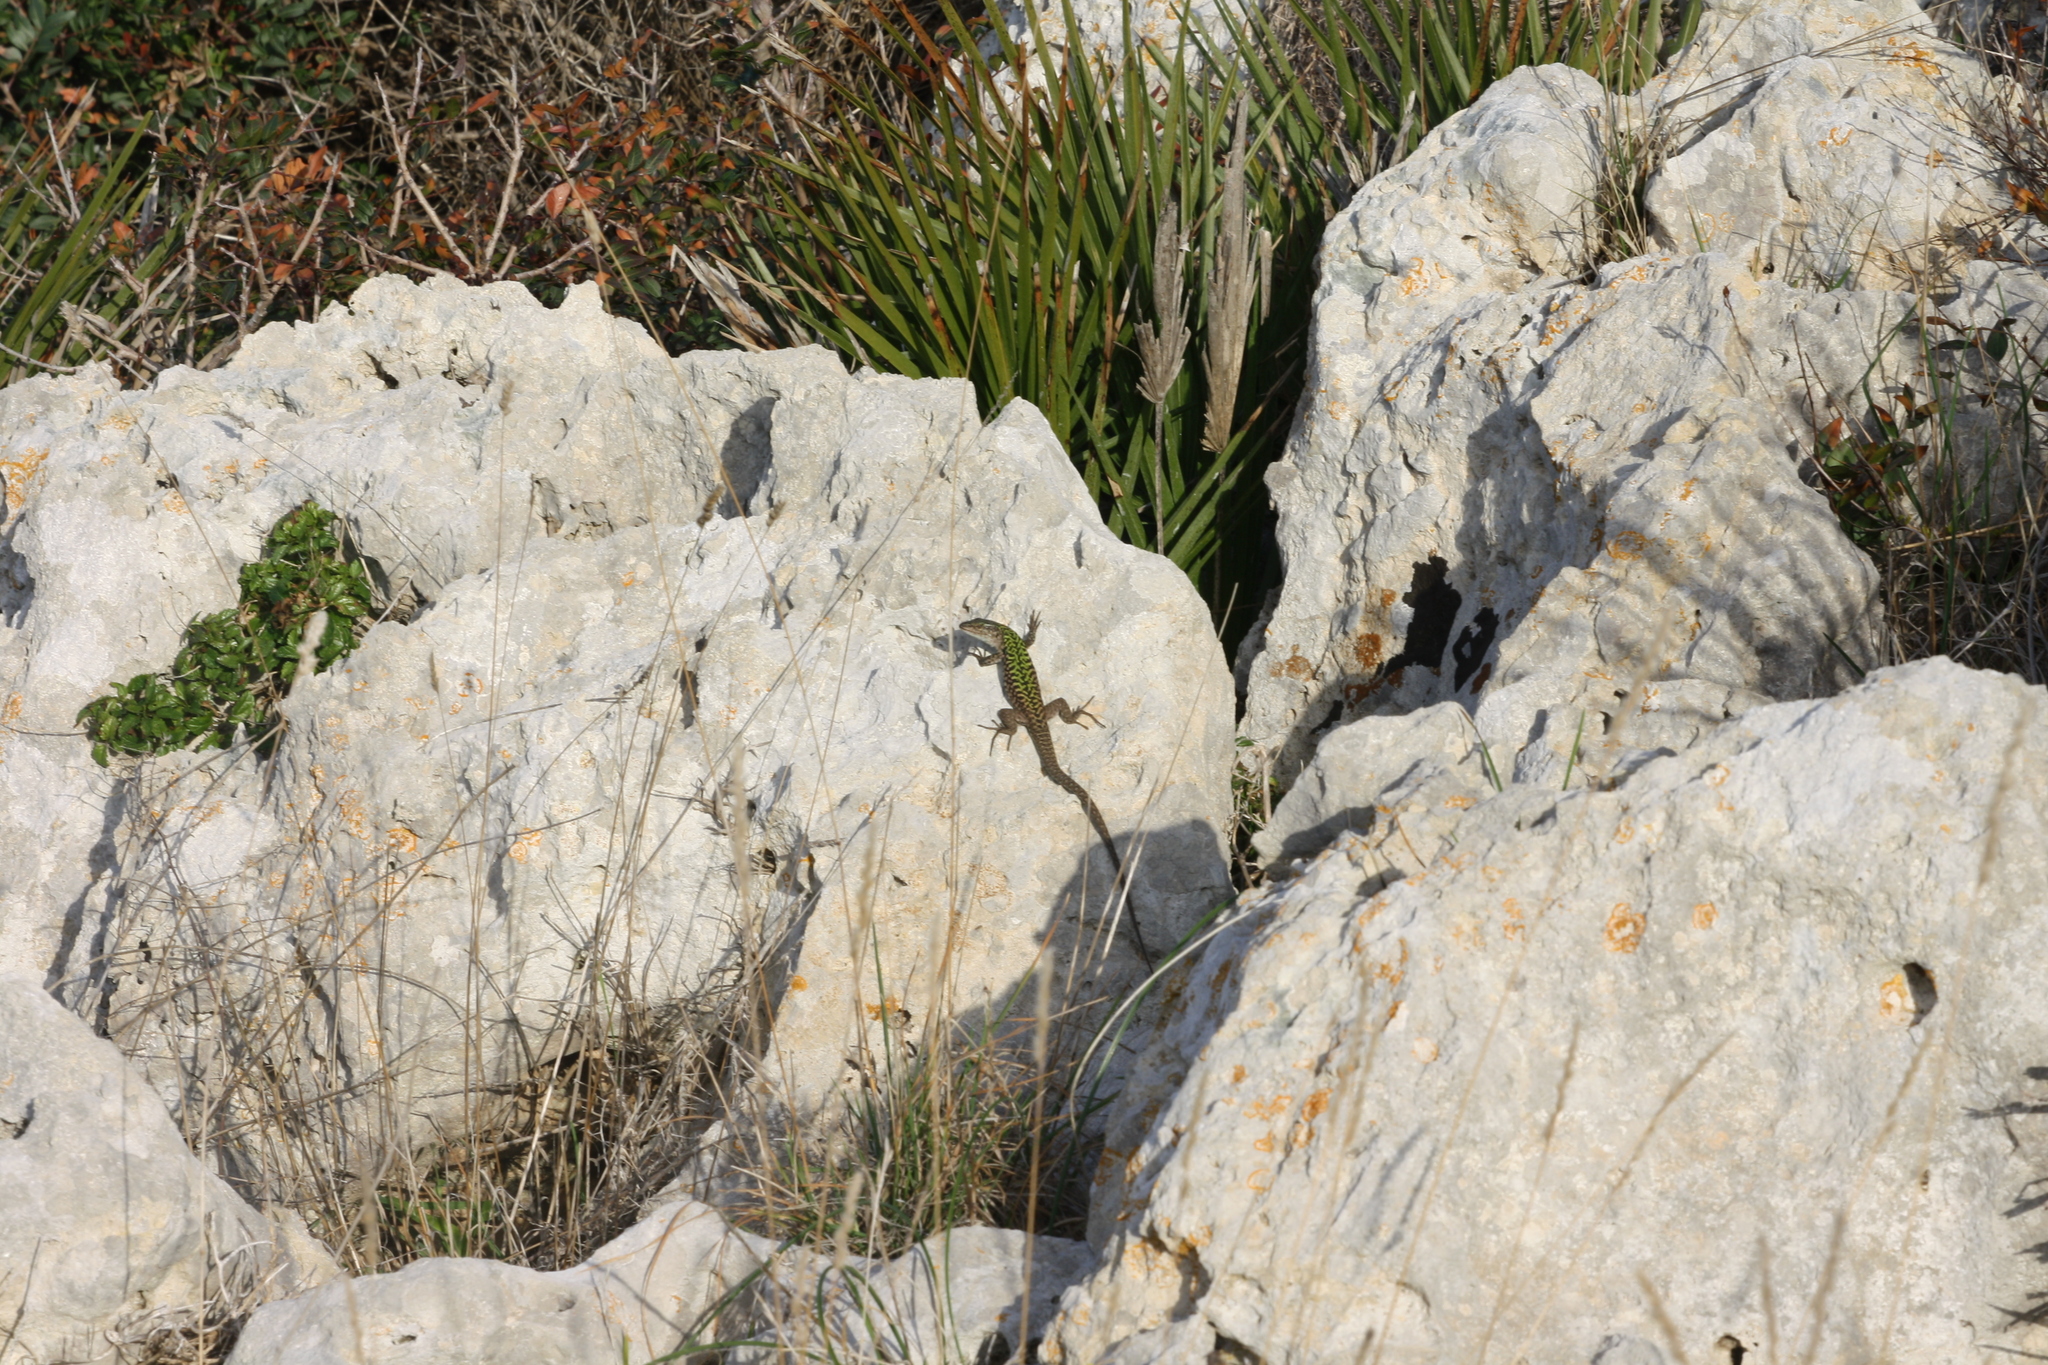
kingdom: Animalia
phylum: Chordata
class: Squamata
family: Lacertidae
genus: Podarcis
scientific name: Podarcis siculus
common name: Italian wall lizard
